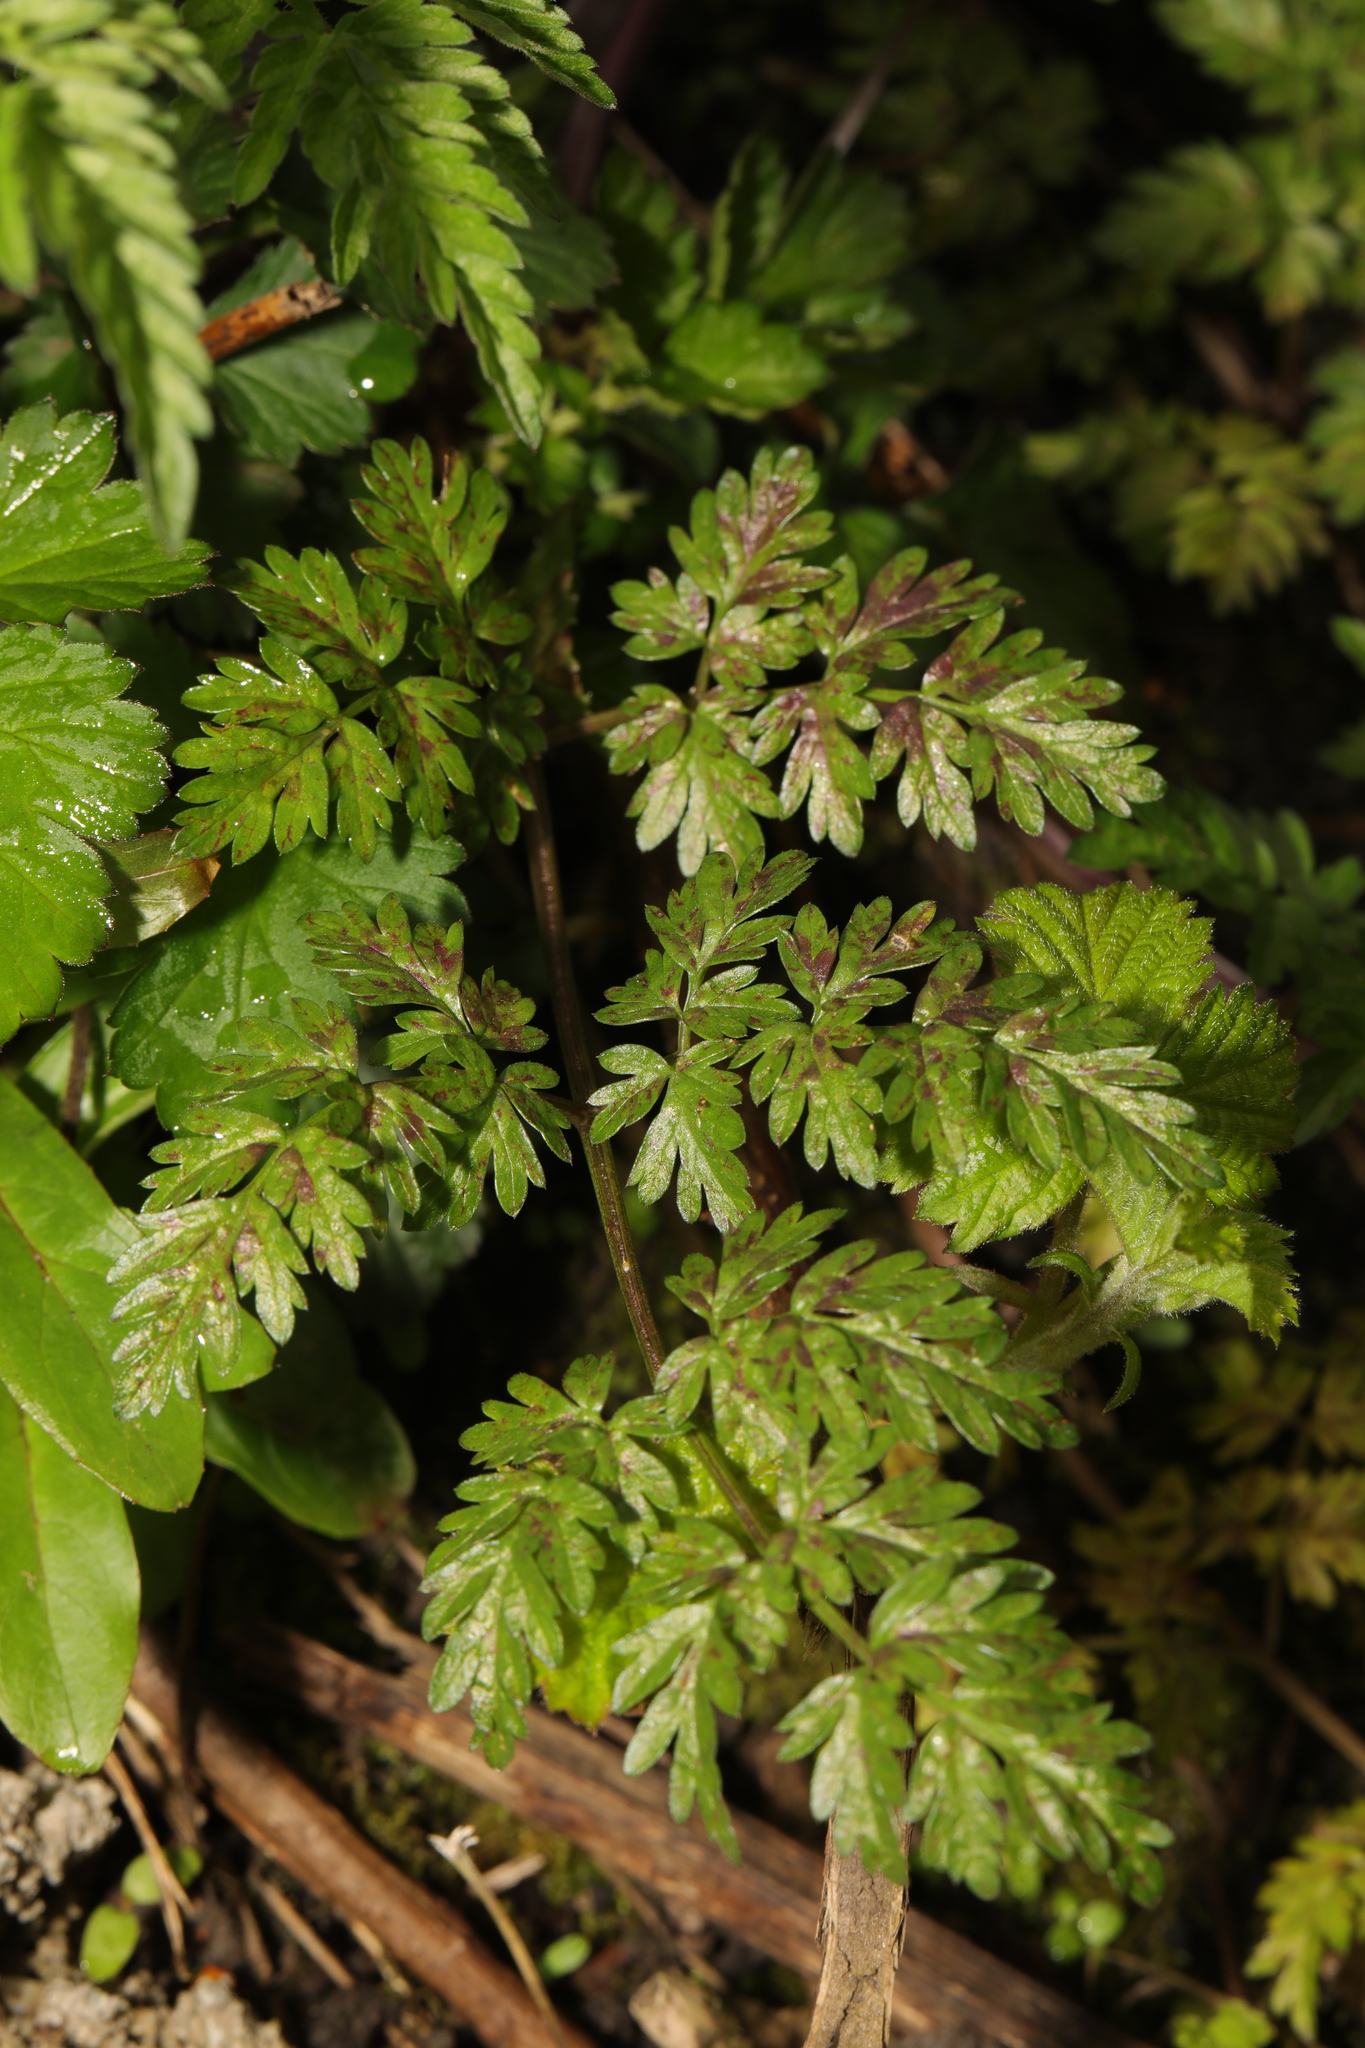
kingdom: Plantae
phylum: Tracheophyta
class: Magnoliopsida
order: Apiales
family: Apiaceae
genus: Anthriscus
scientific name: Anthriscus sylvestris
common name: Cow parsley
